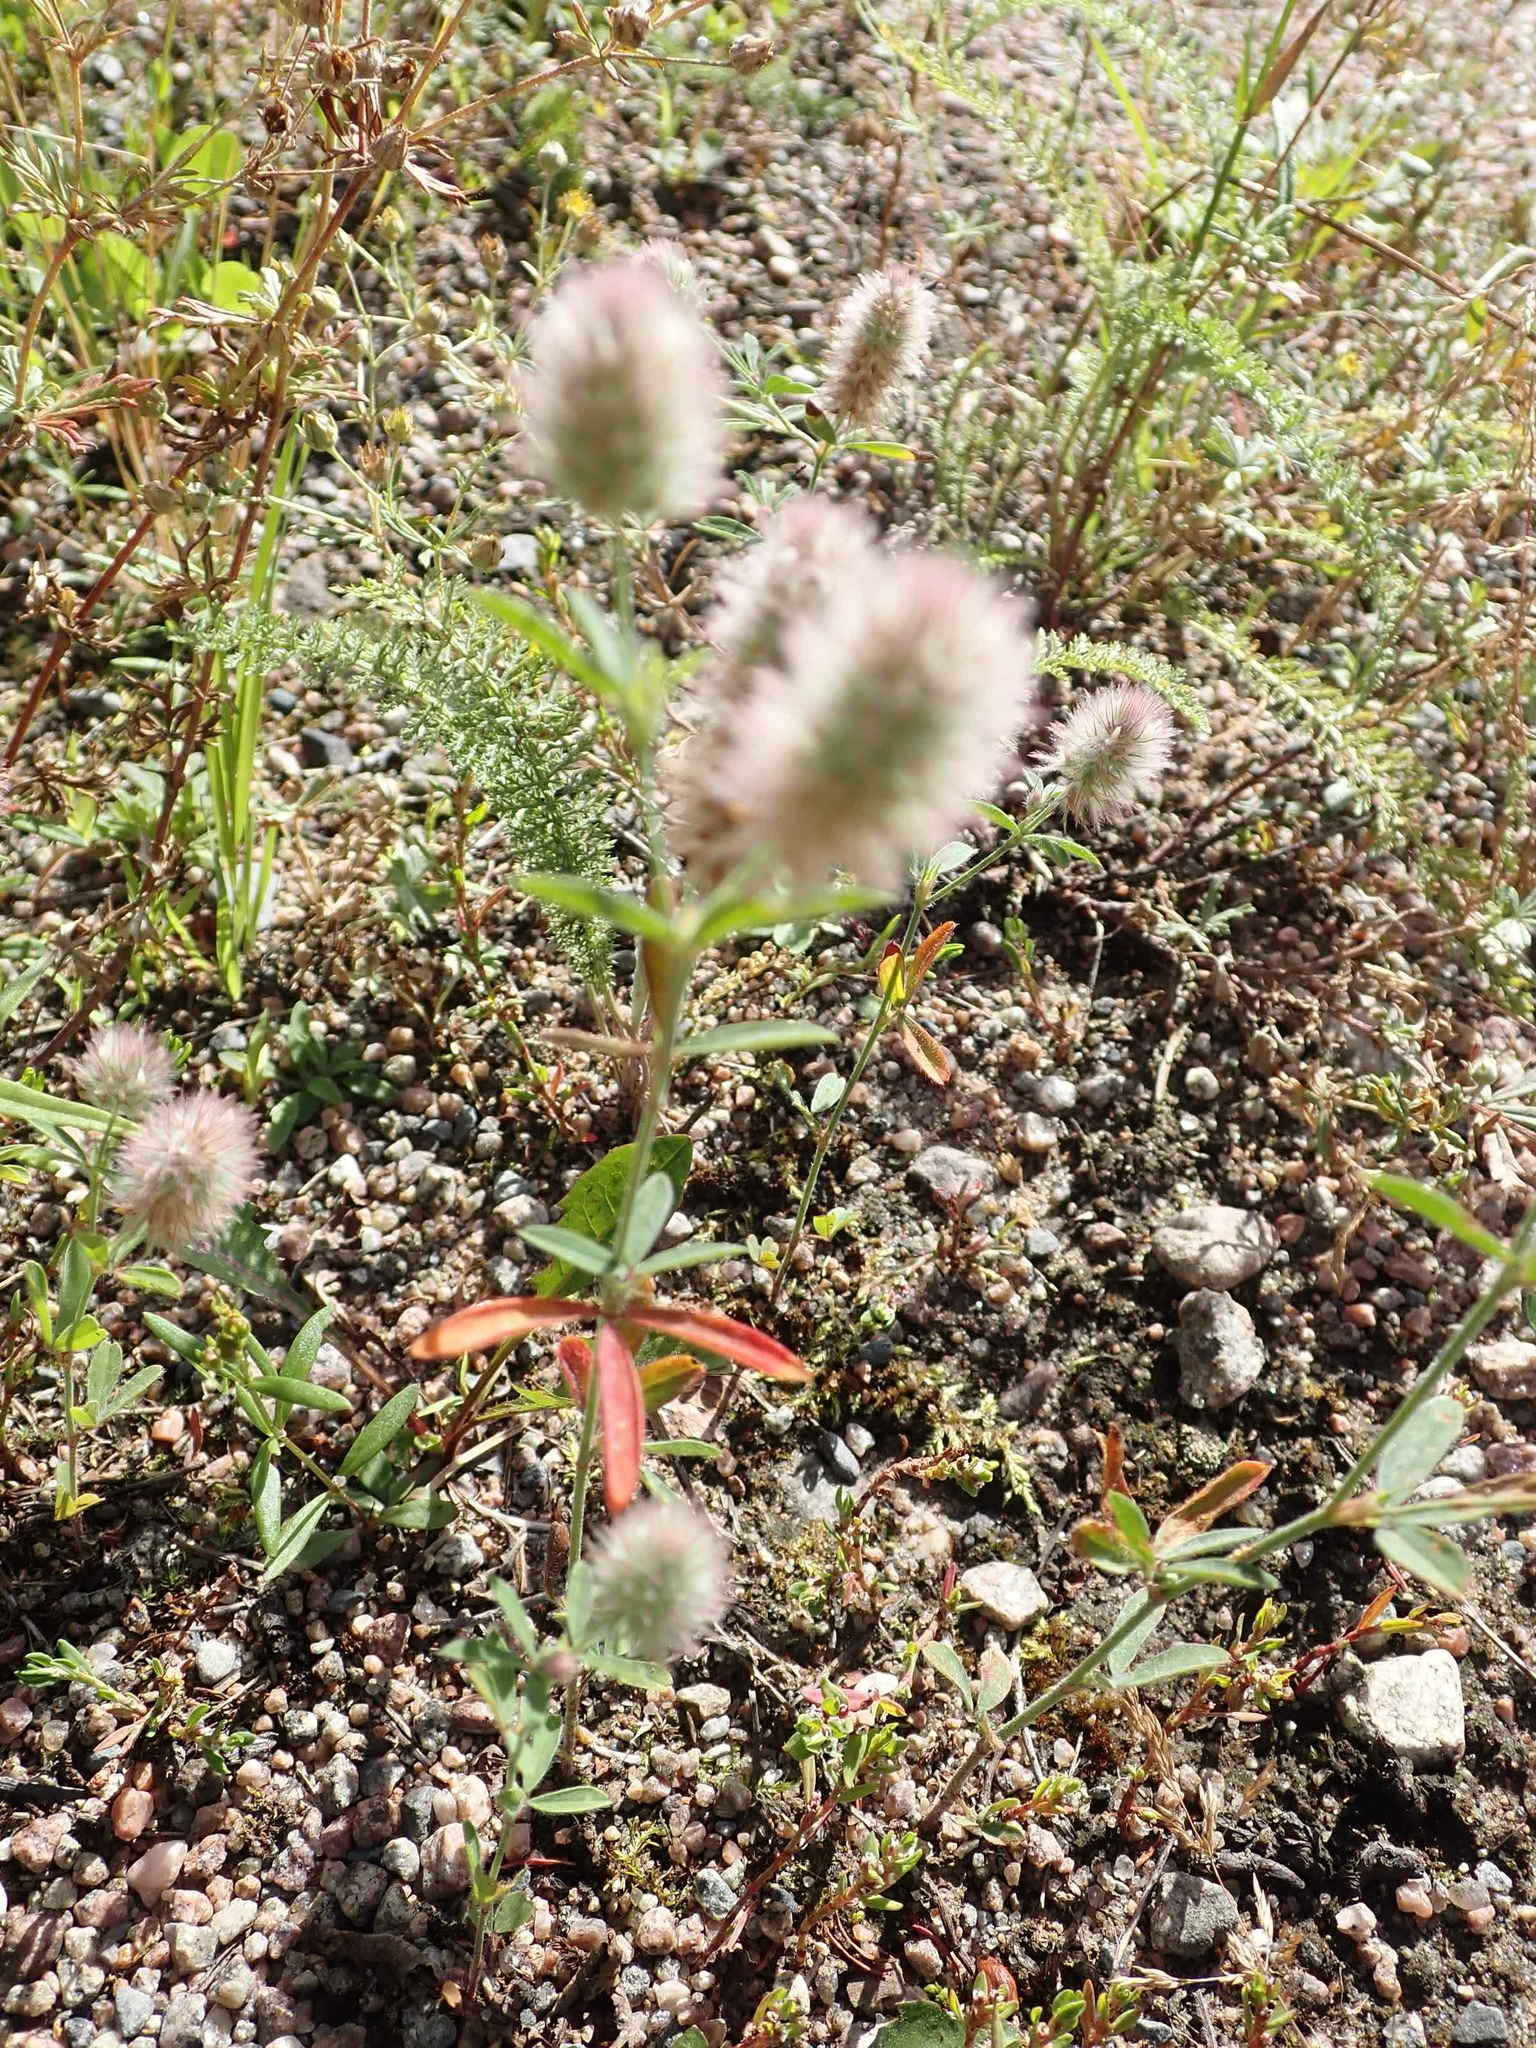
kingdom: Plantae
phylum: Tracheophyta
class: Magnoliopsida
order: Fabales
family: Fabaceae
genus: Trifolium
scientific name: Trifolium arvense
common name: Hare's-foot clover
